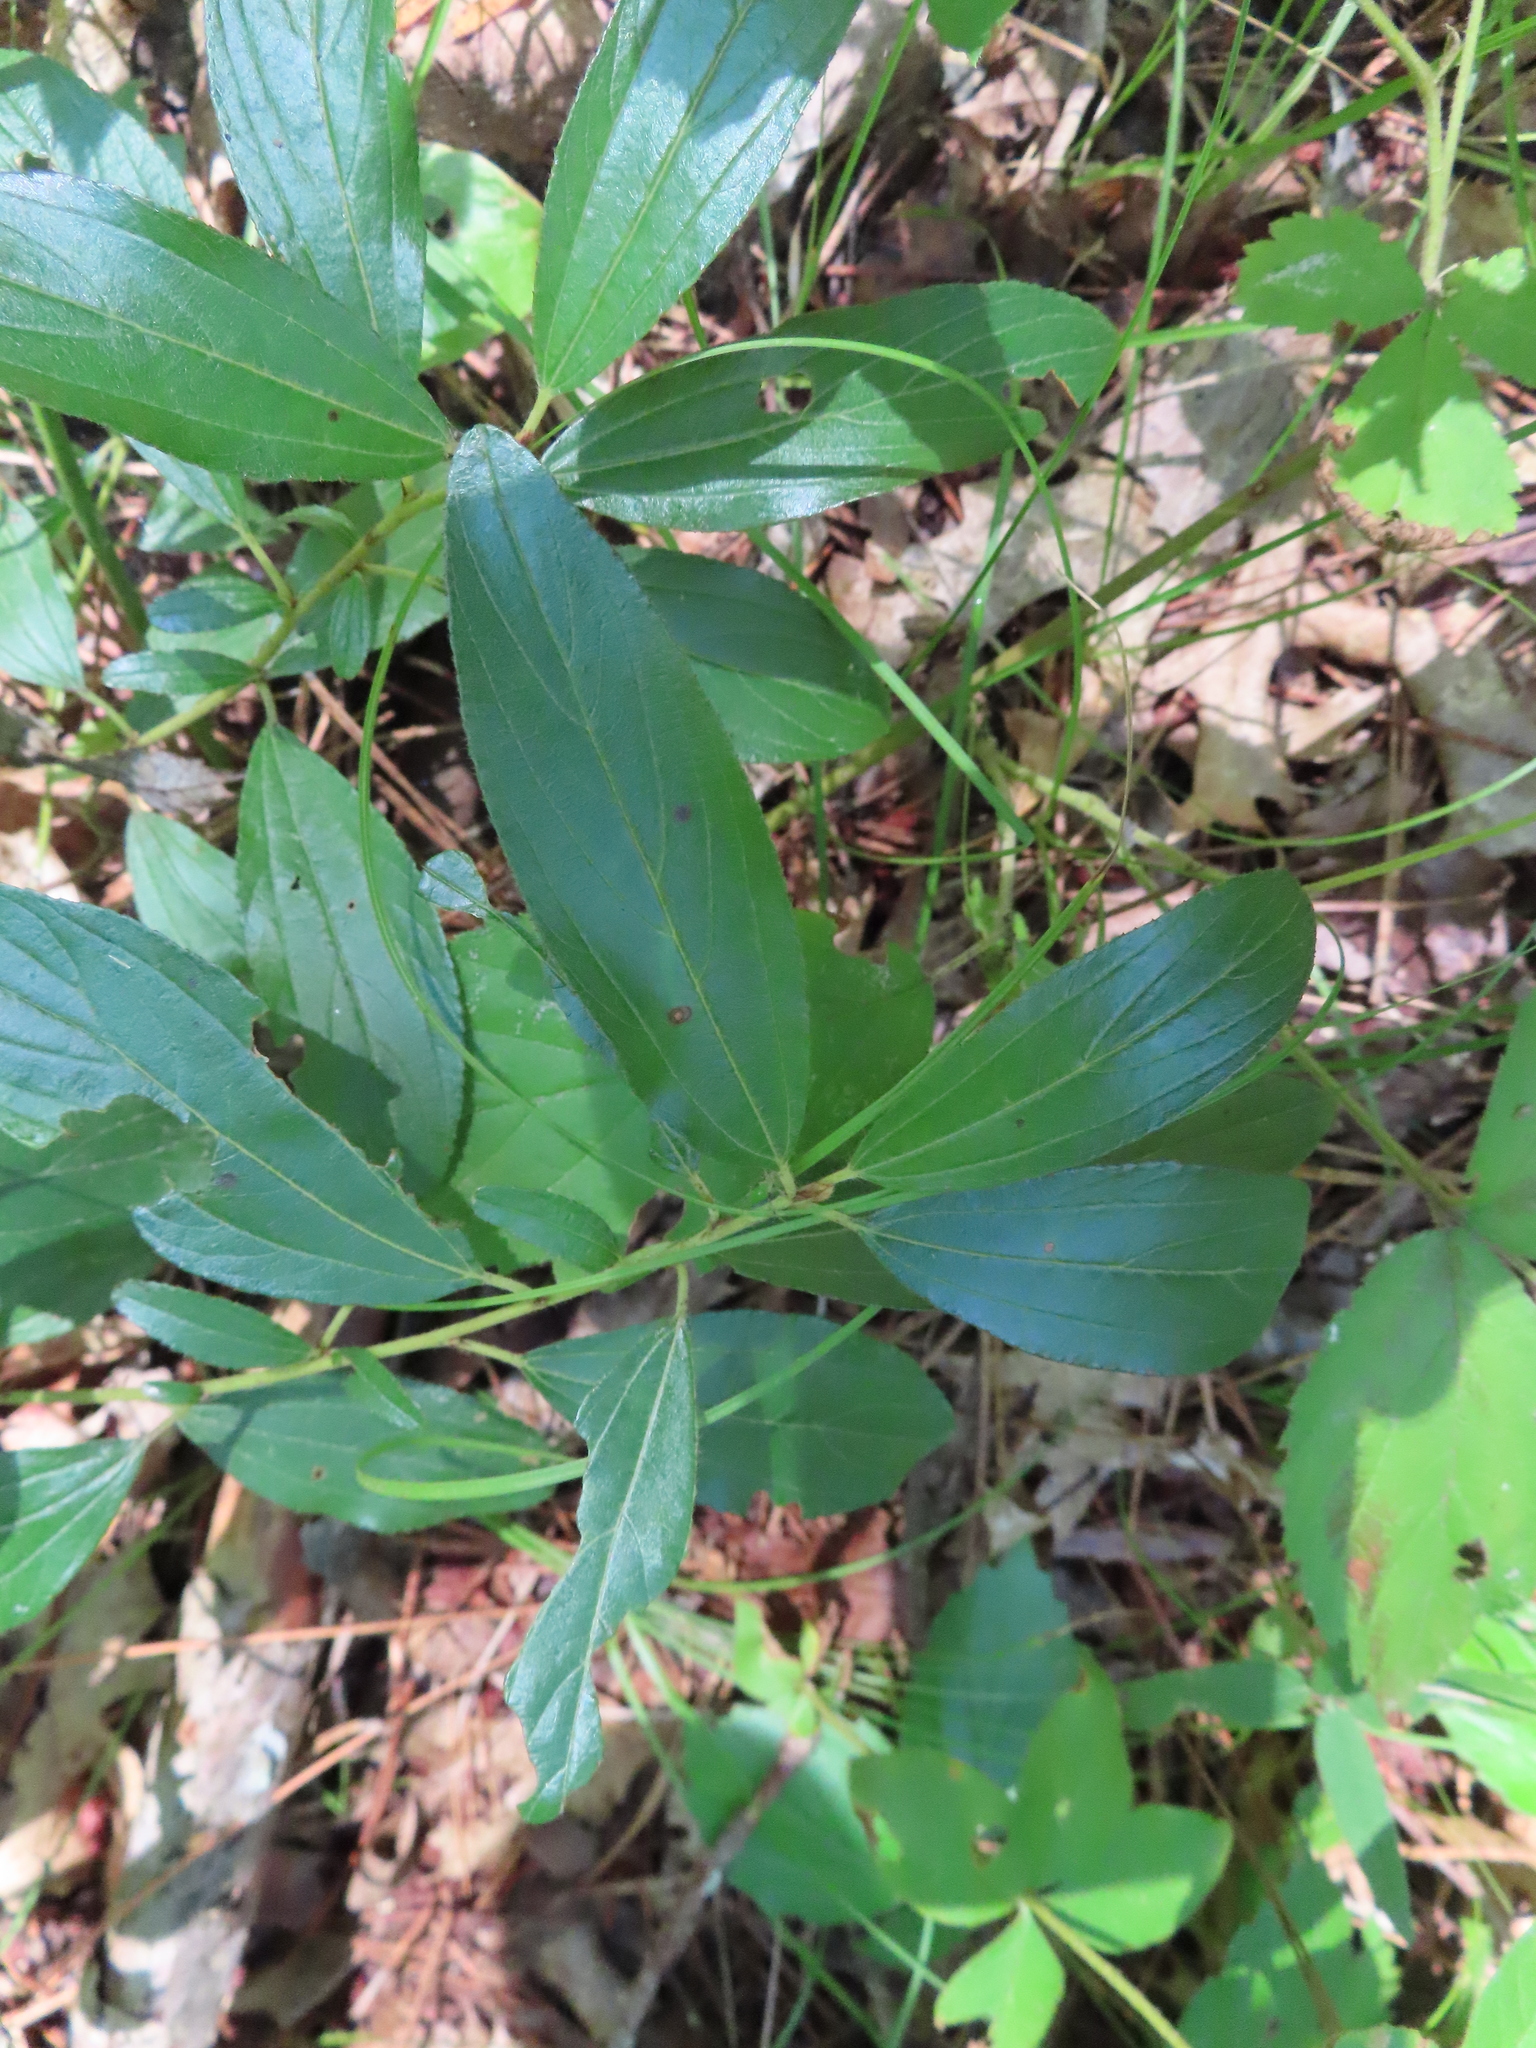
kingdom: Plantae
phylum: Tracheophyta
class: Magnoliopsida
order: Rosales
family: Rhamnaceae
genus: Ceanothus
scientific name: Ceanothus herbaceus
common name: Inland ceanothus
